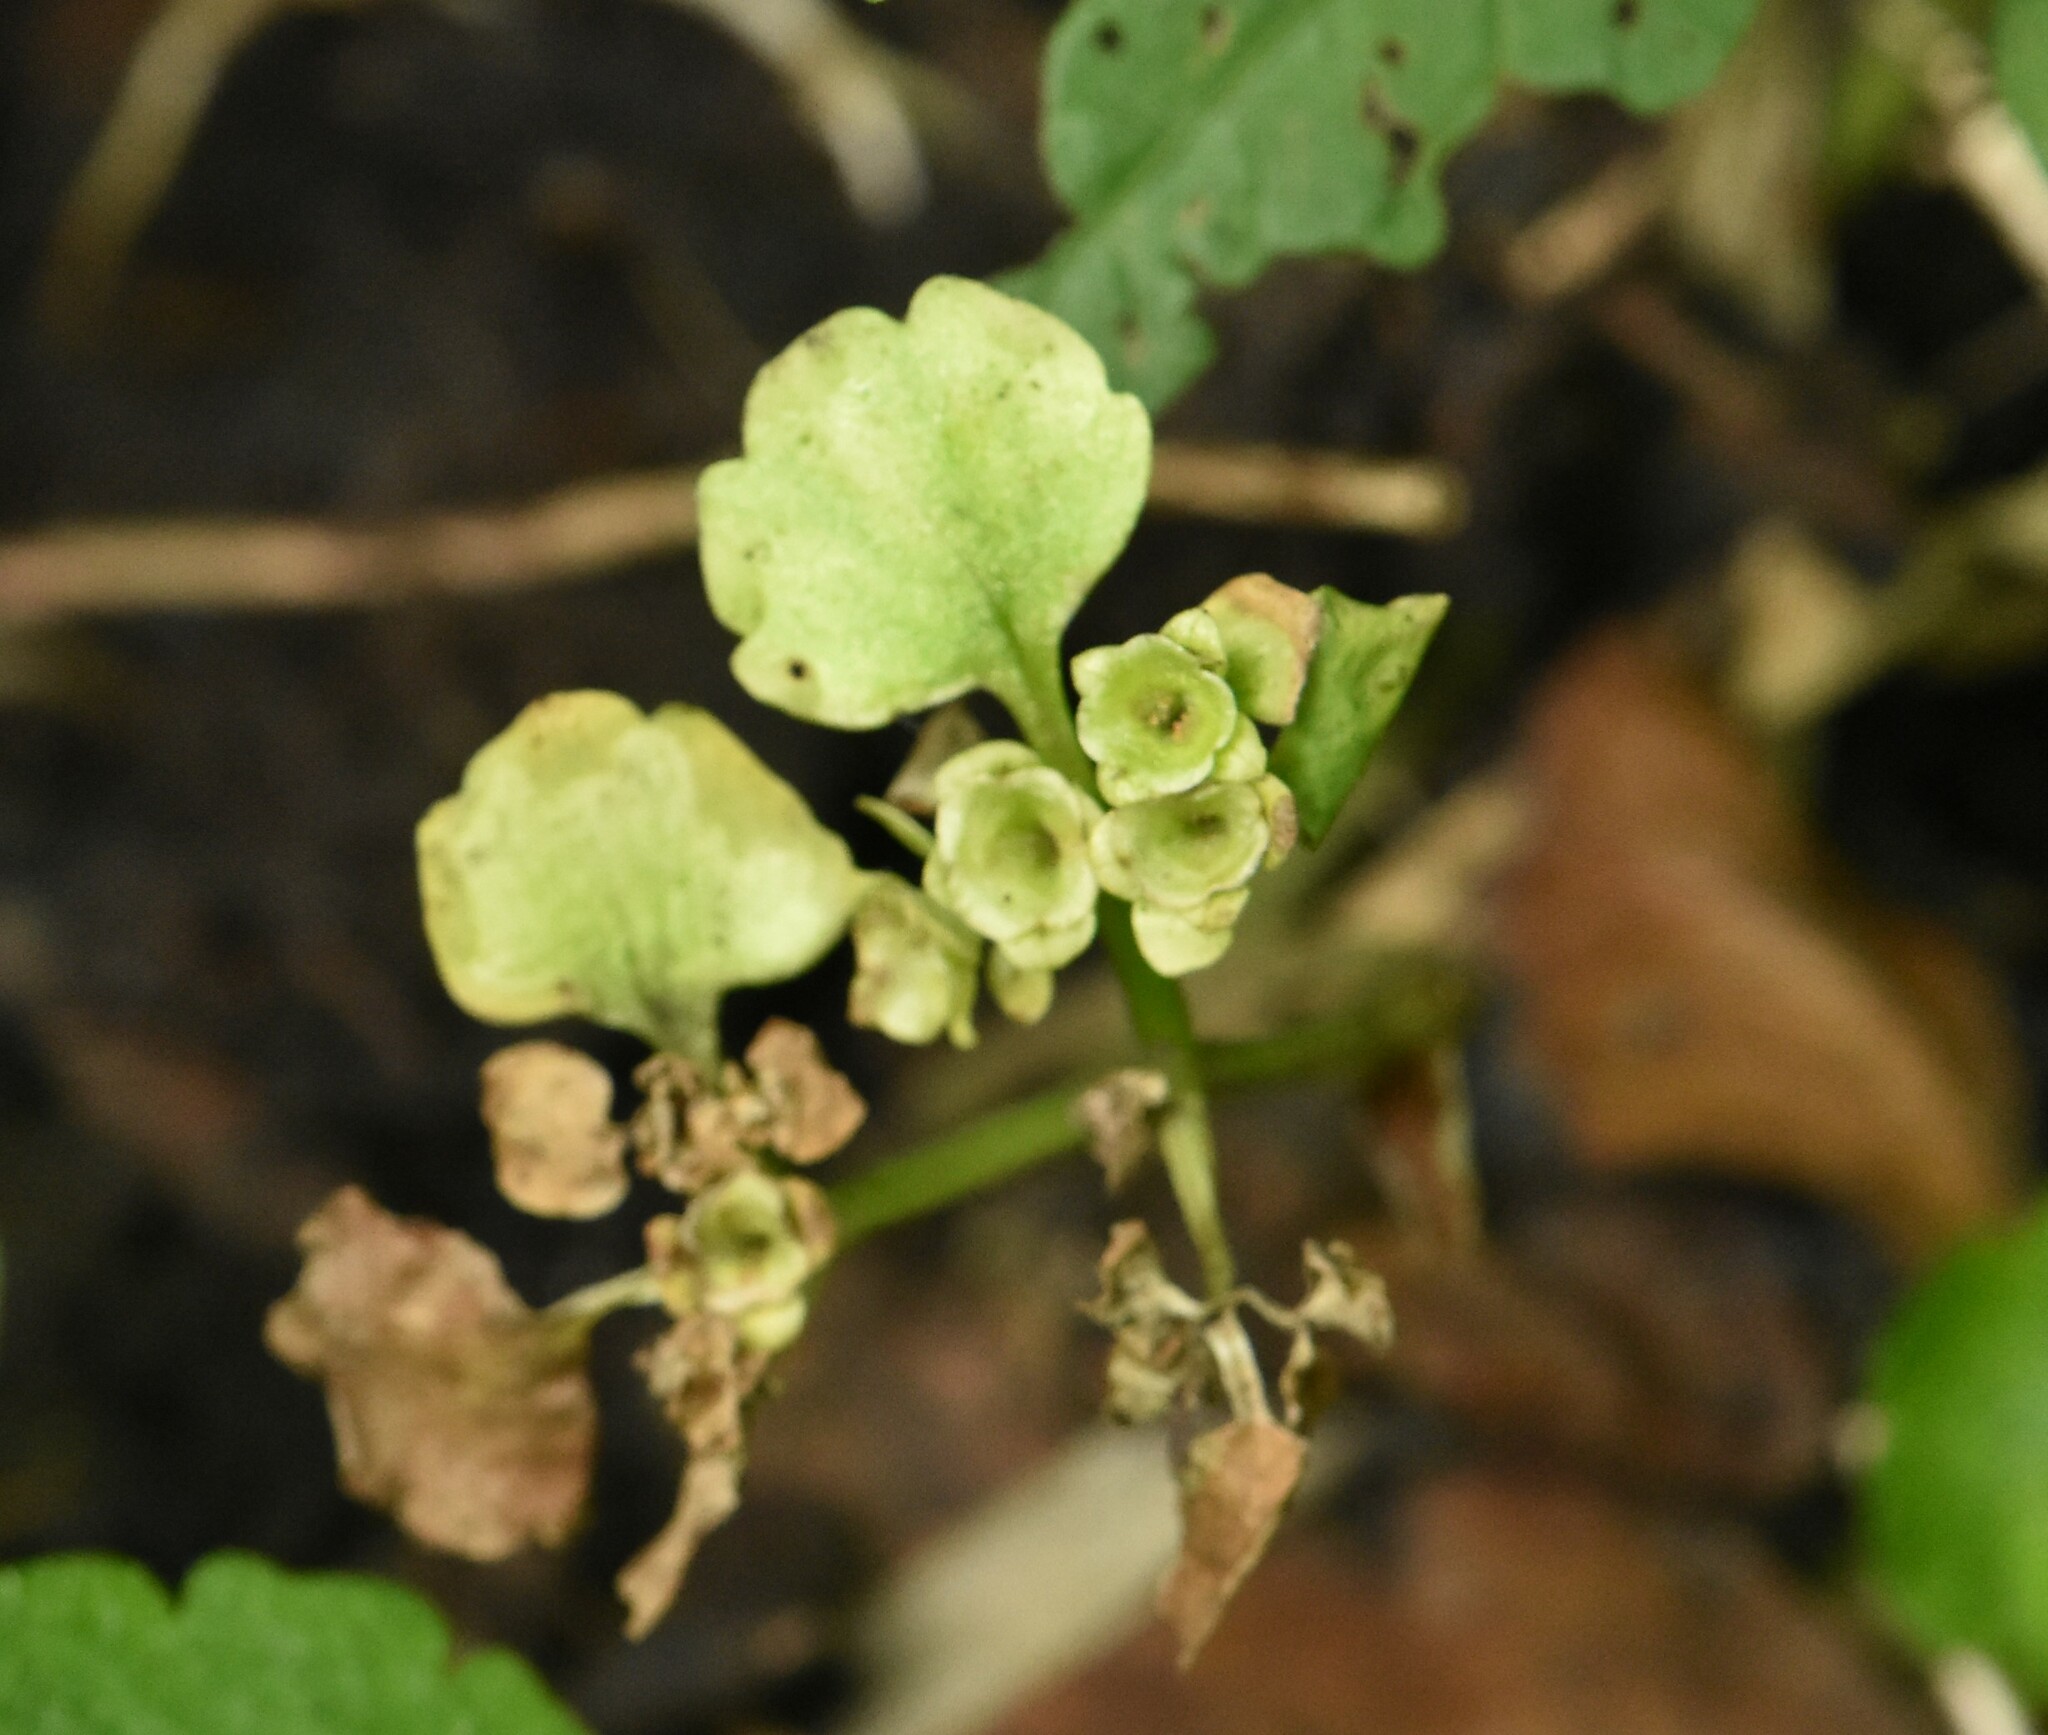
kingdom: Plantae
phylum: Tracheophyta
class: Magnoliopsida
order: Saxifragales
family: Saxifragaceae
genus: Chrysosplenium
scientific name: Chrysosplenium alternifolium
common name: Alternate-leaved golden-saxifrage
